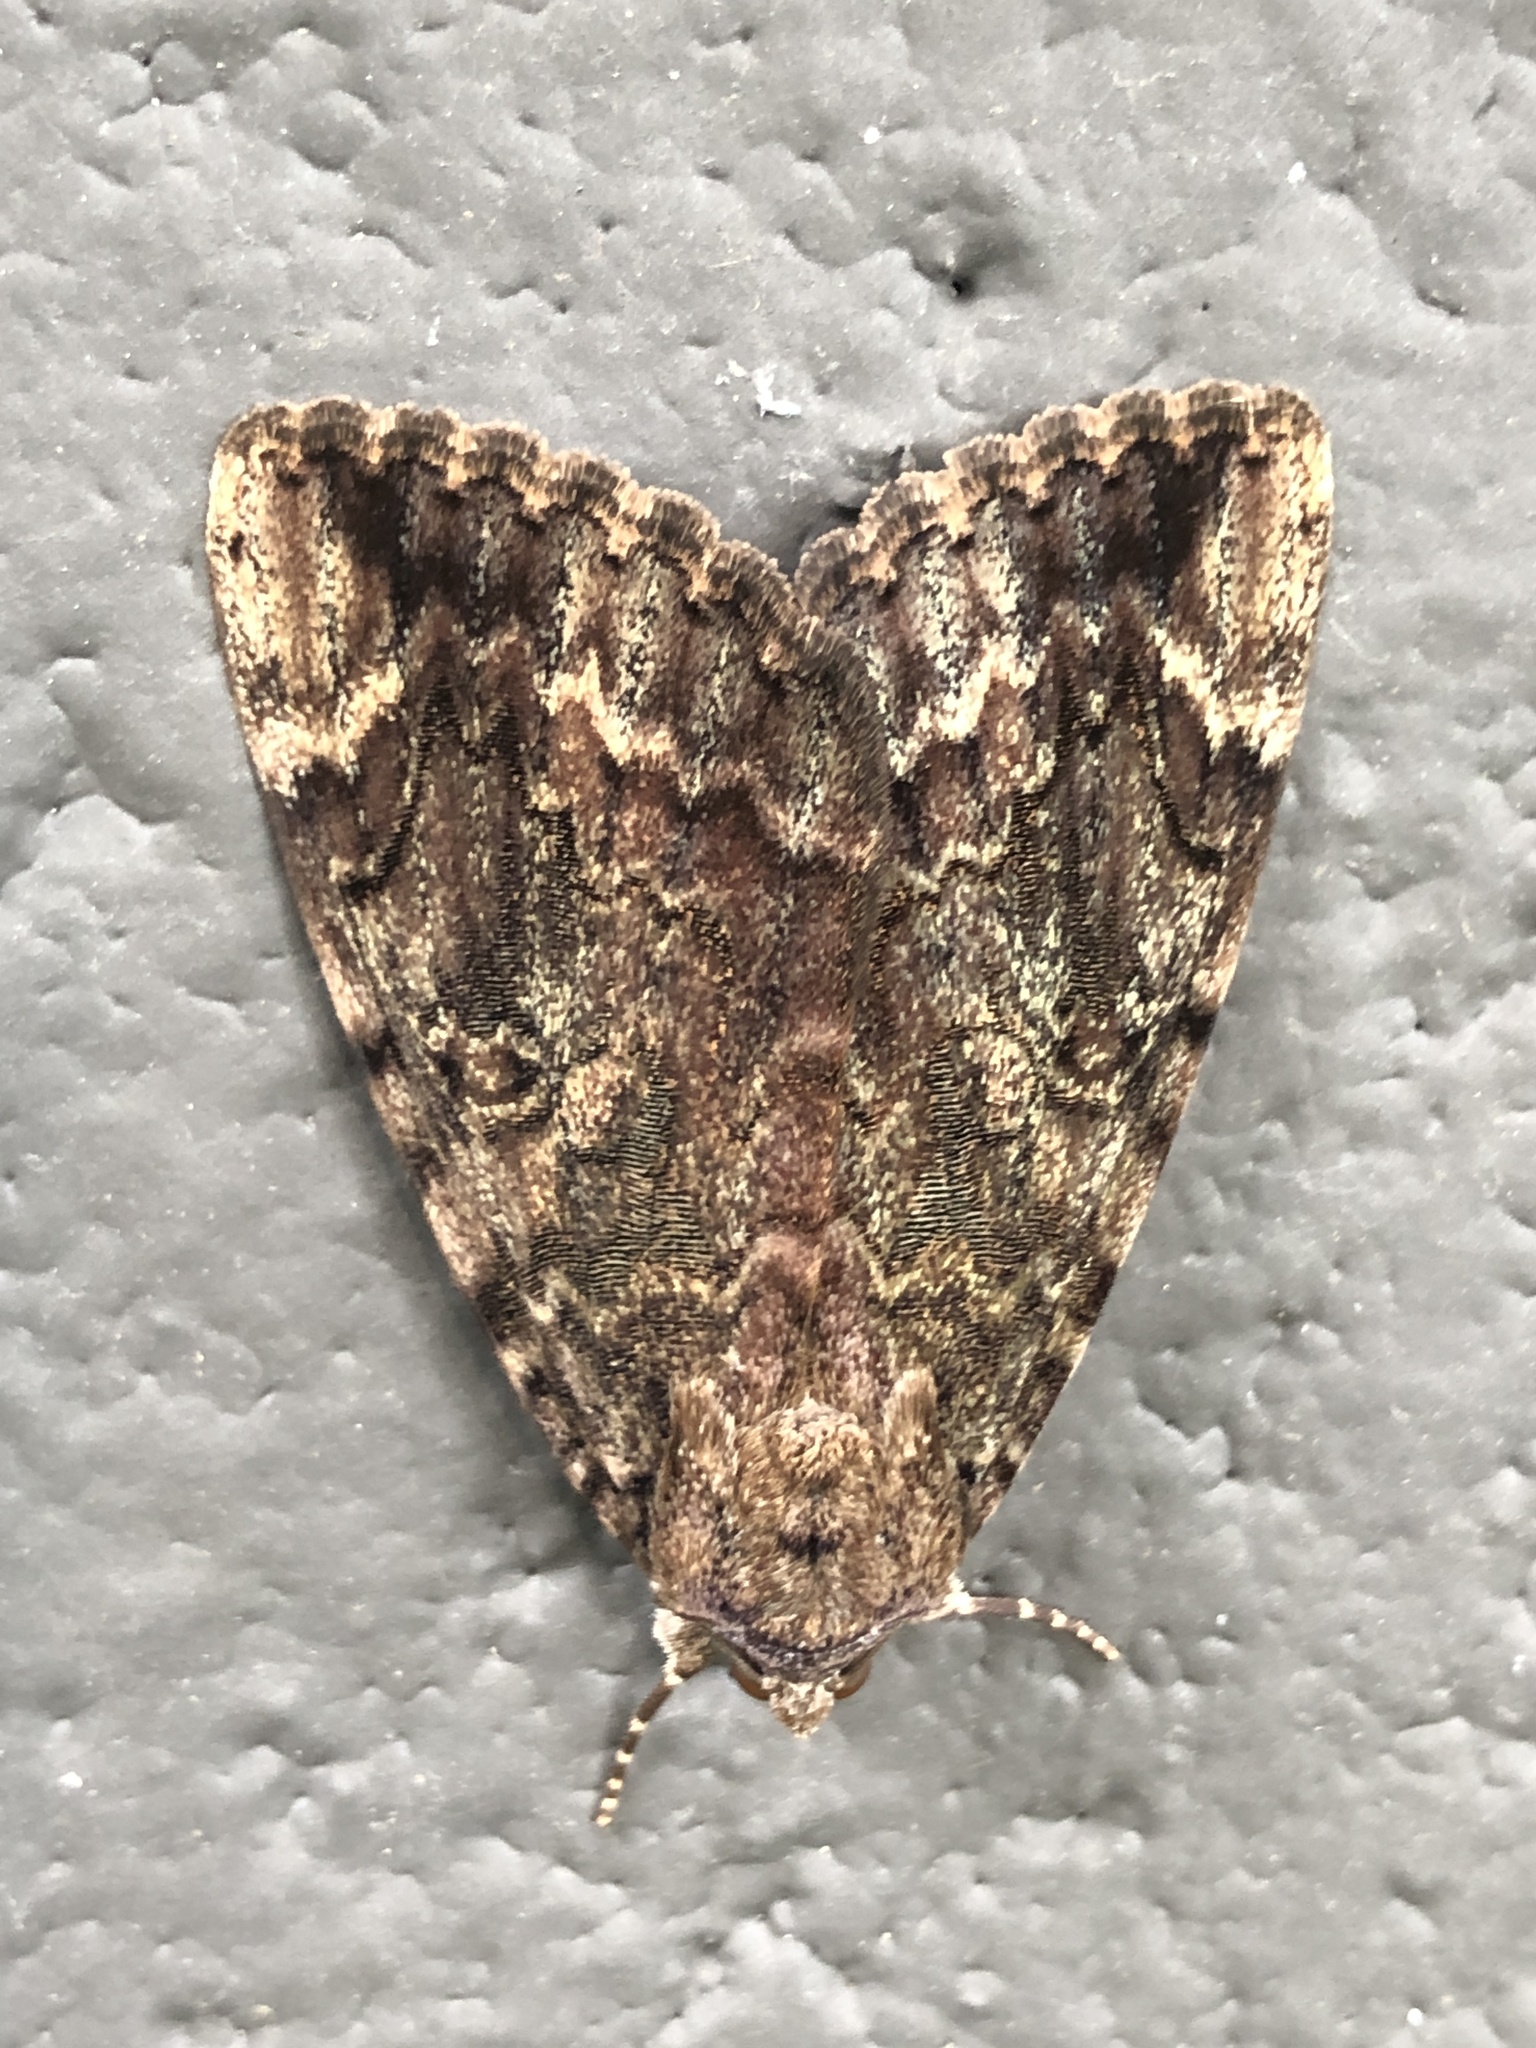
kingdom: Animalia
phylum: Arthropoda
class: Insecta
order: Lepidoptera
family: Erebidae
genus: Catocala
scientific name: Catocala innubens
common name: Betrothed underwing
